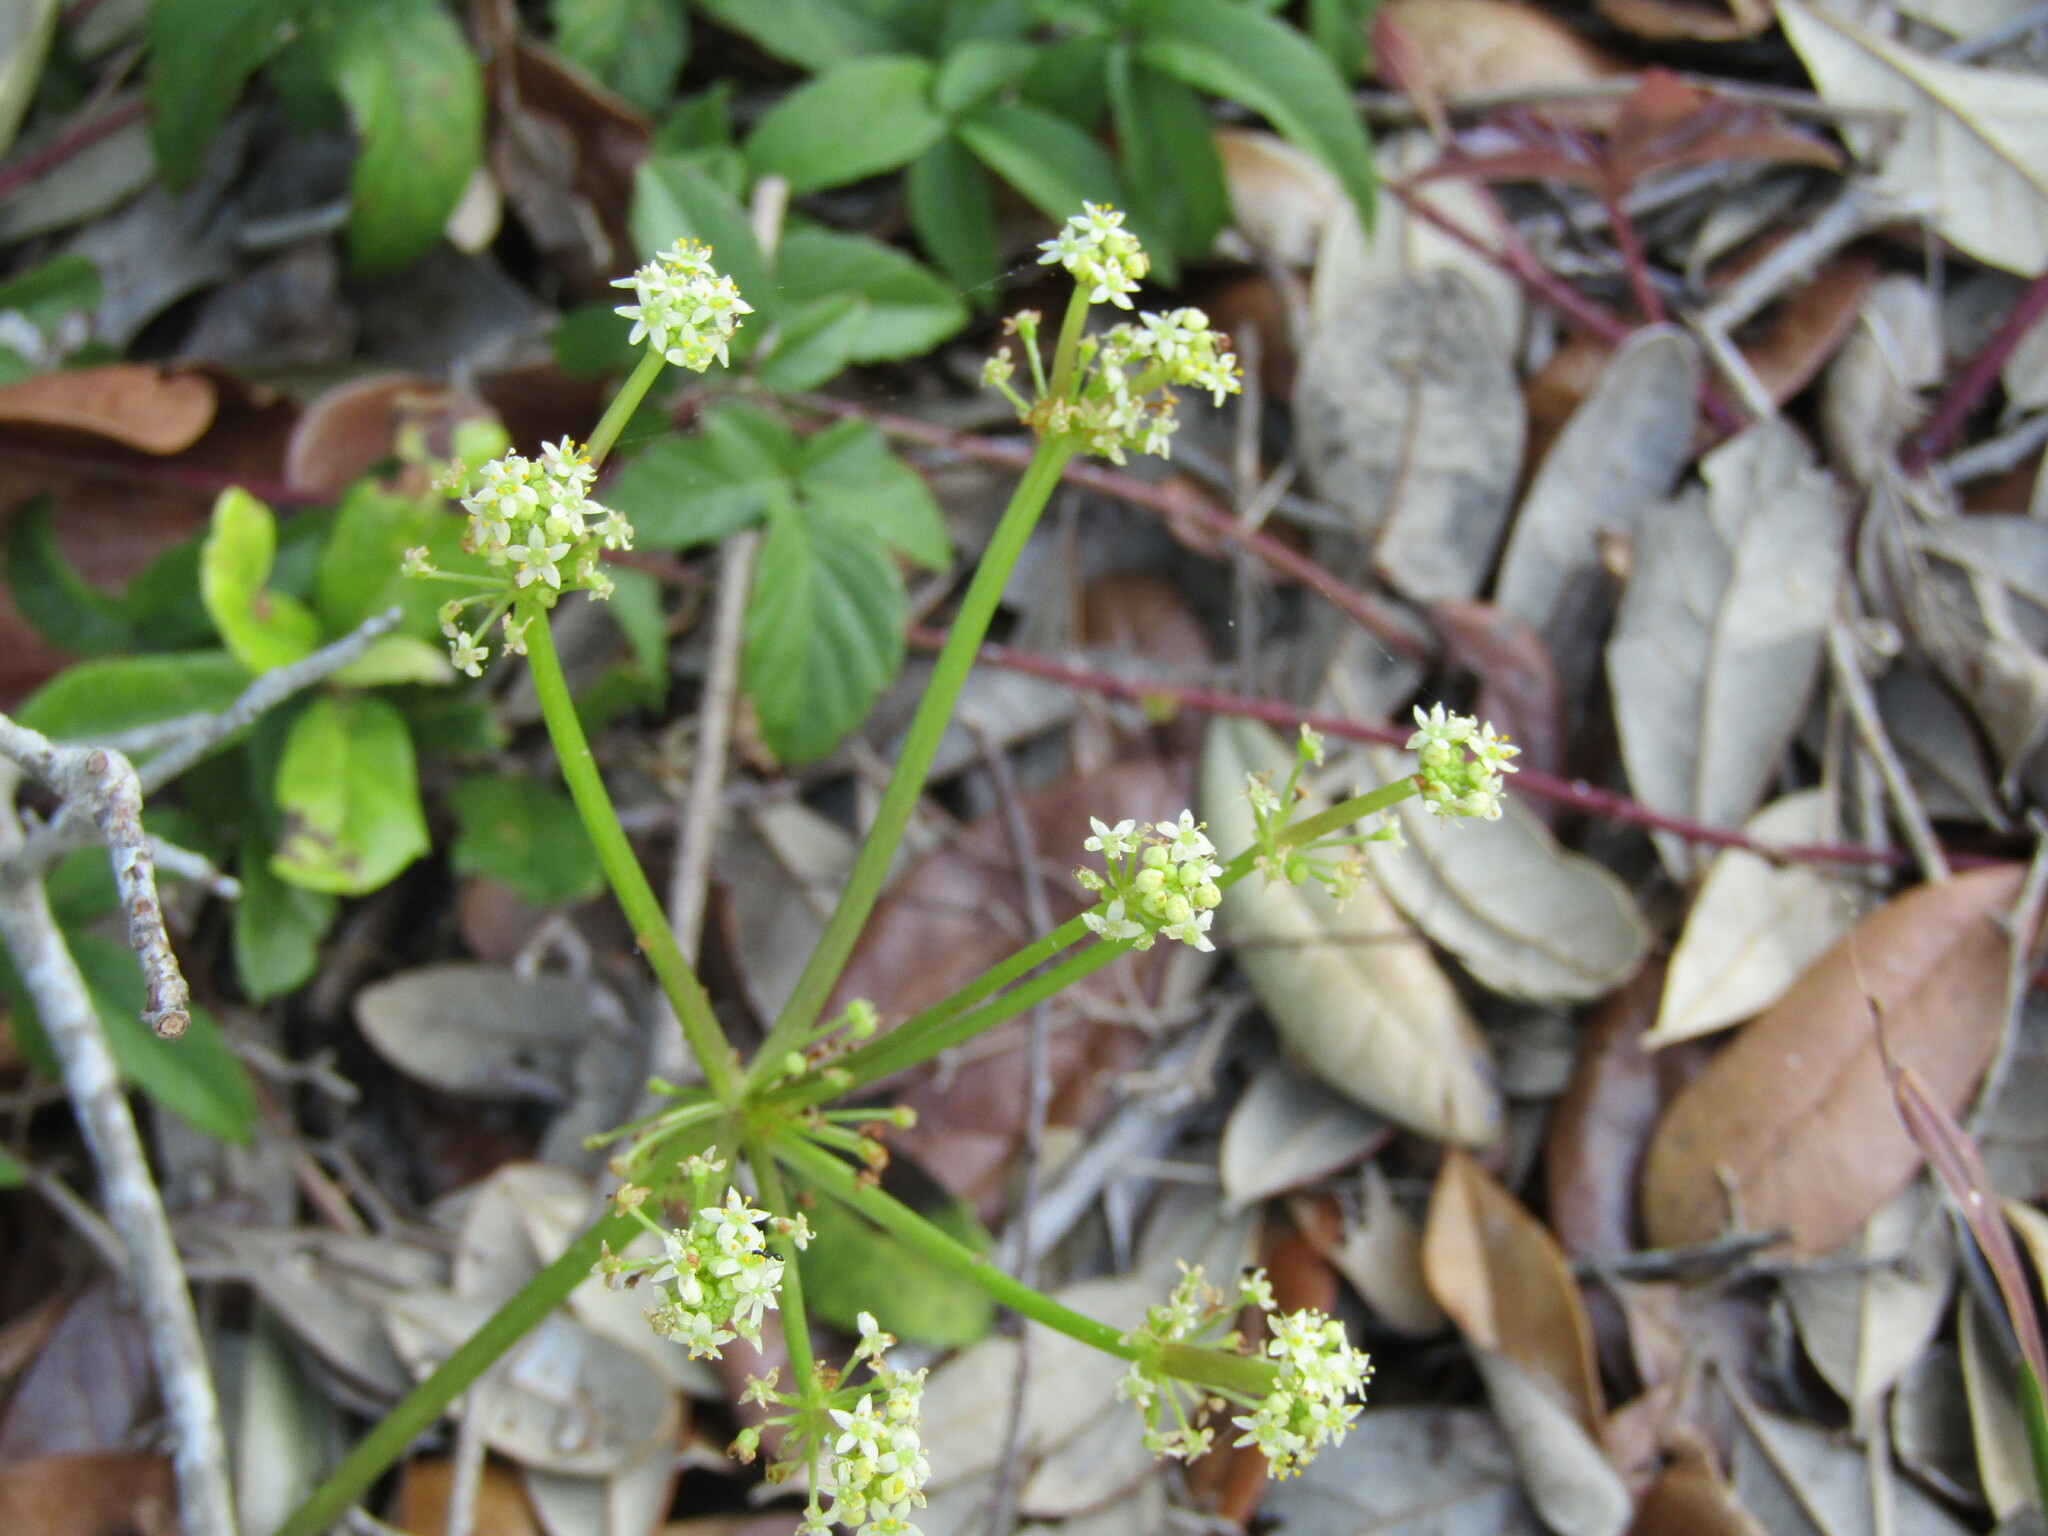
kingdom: Plantae
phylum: Tracheophyta
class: Magnoliopsida
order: Apiales
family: Araliaceae
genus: Hydrocotyle
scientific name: Hydrocotyle bonariensis
